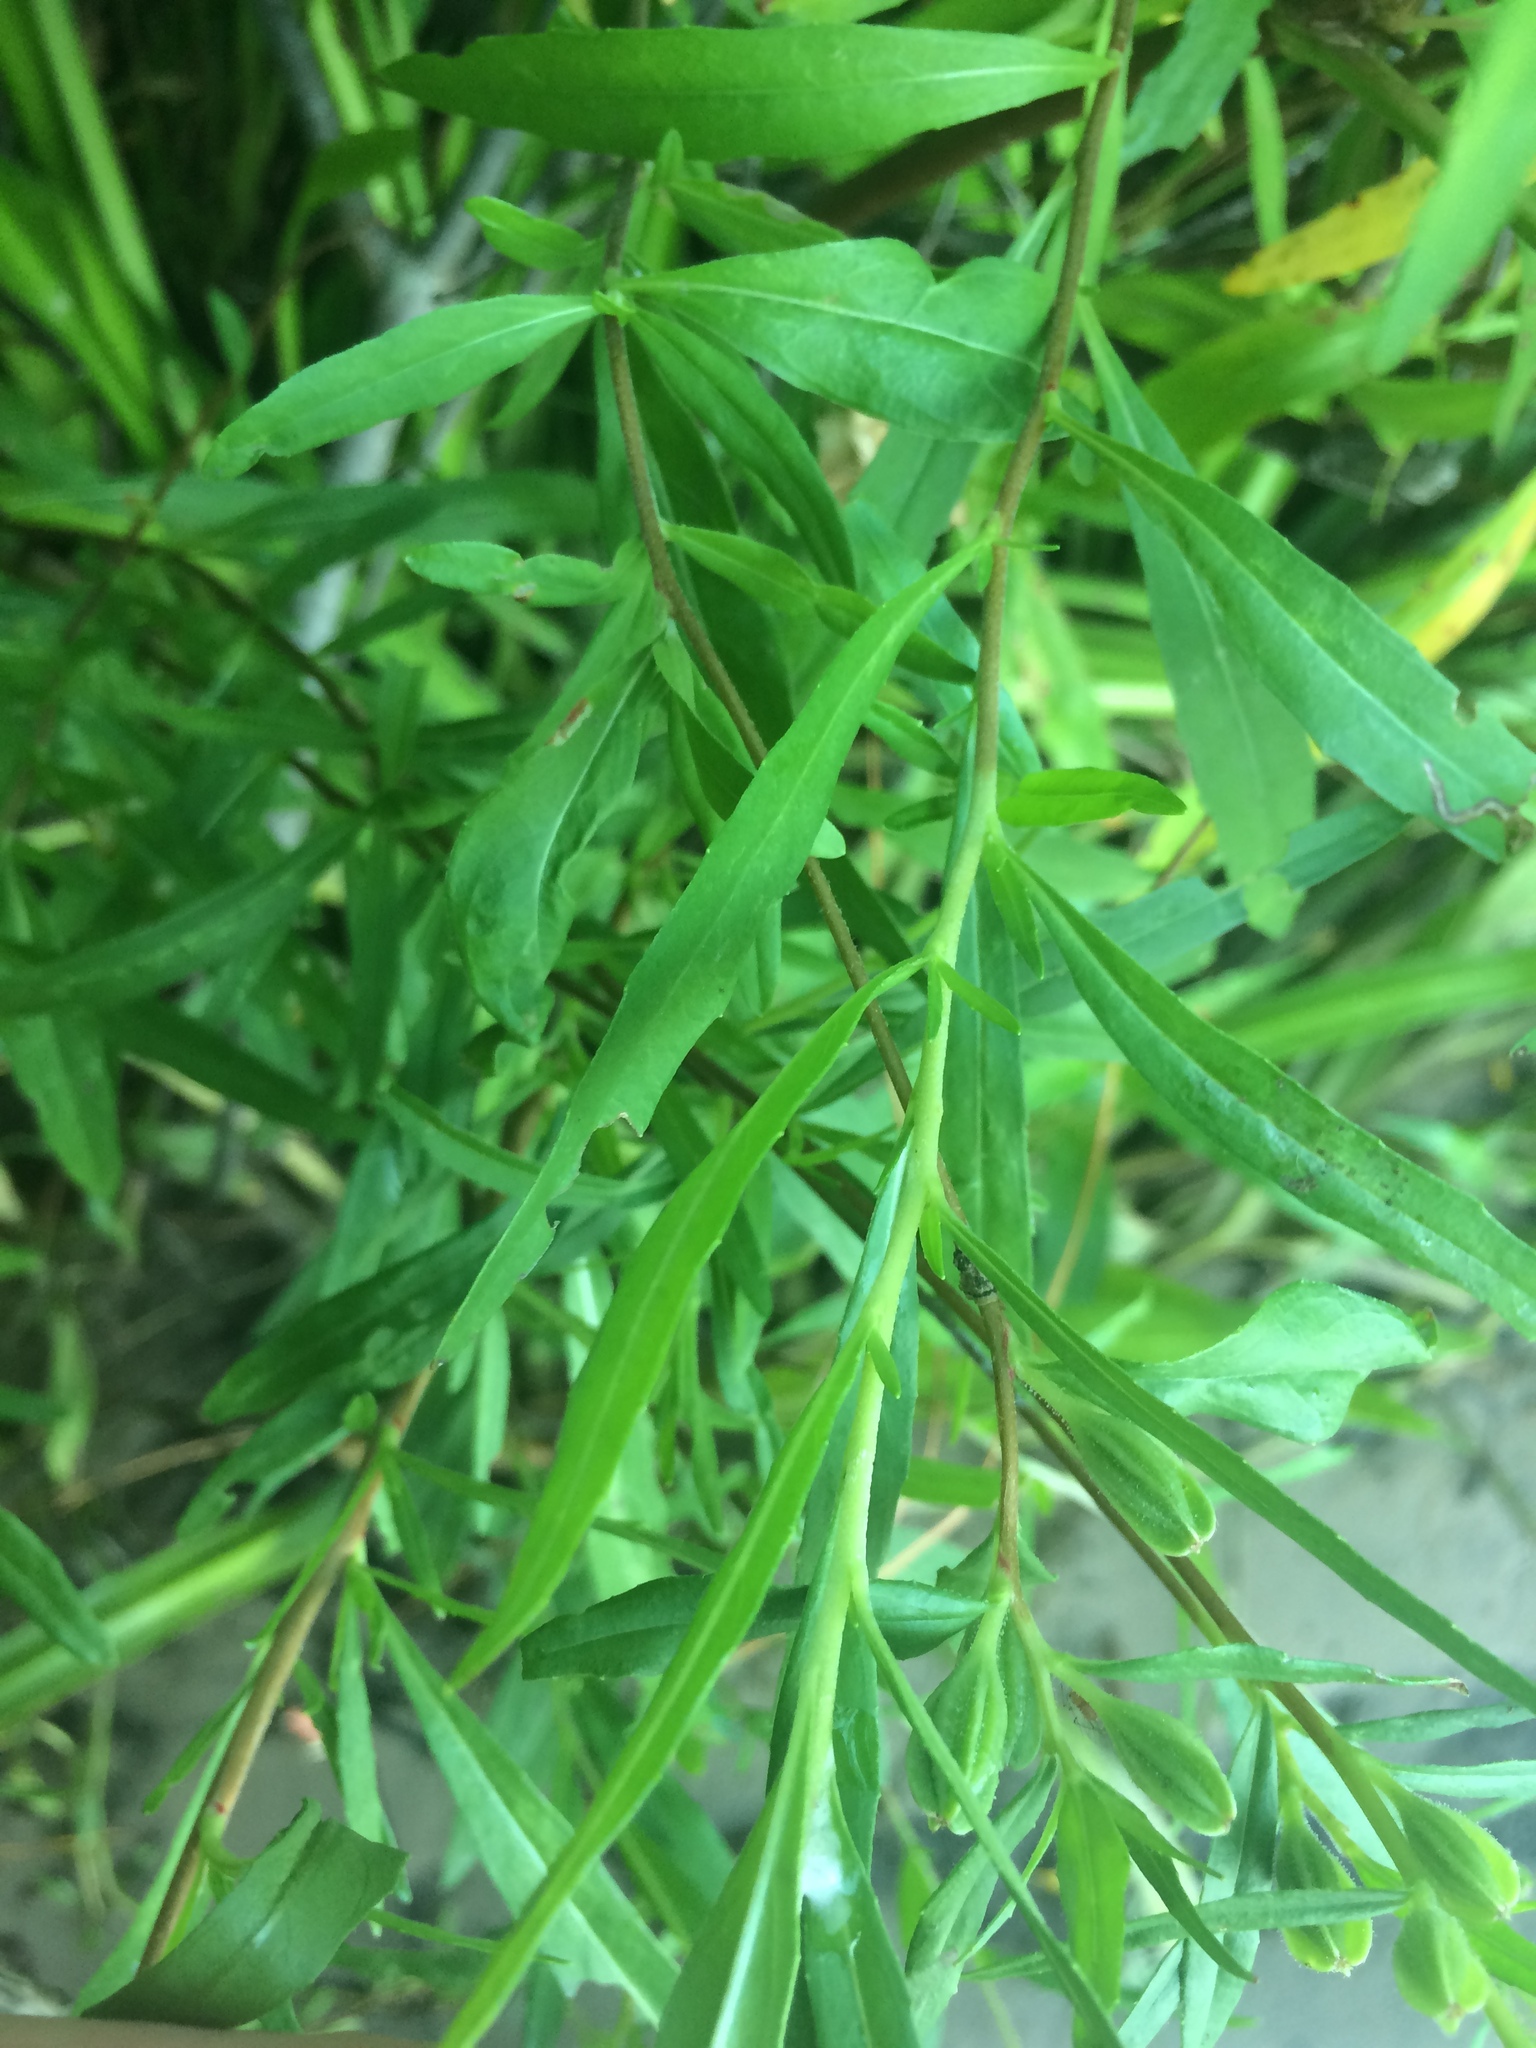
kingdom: Plantae
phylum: Tracheophyta
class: Magnoliopsida
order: Myrtales
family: Onagraceae
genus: Oenothera
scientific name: Oenothera
